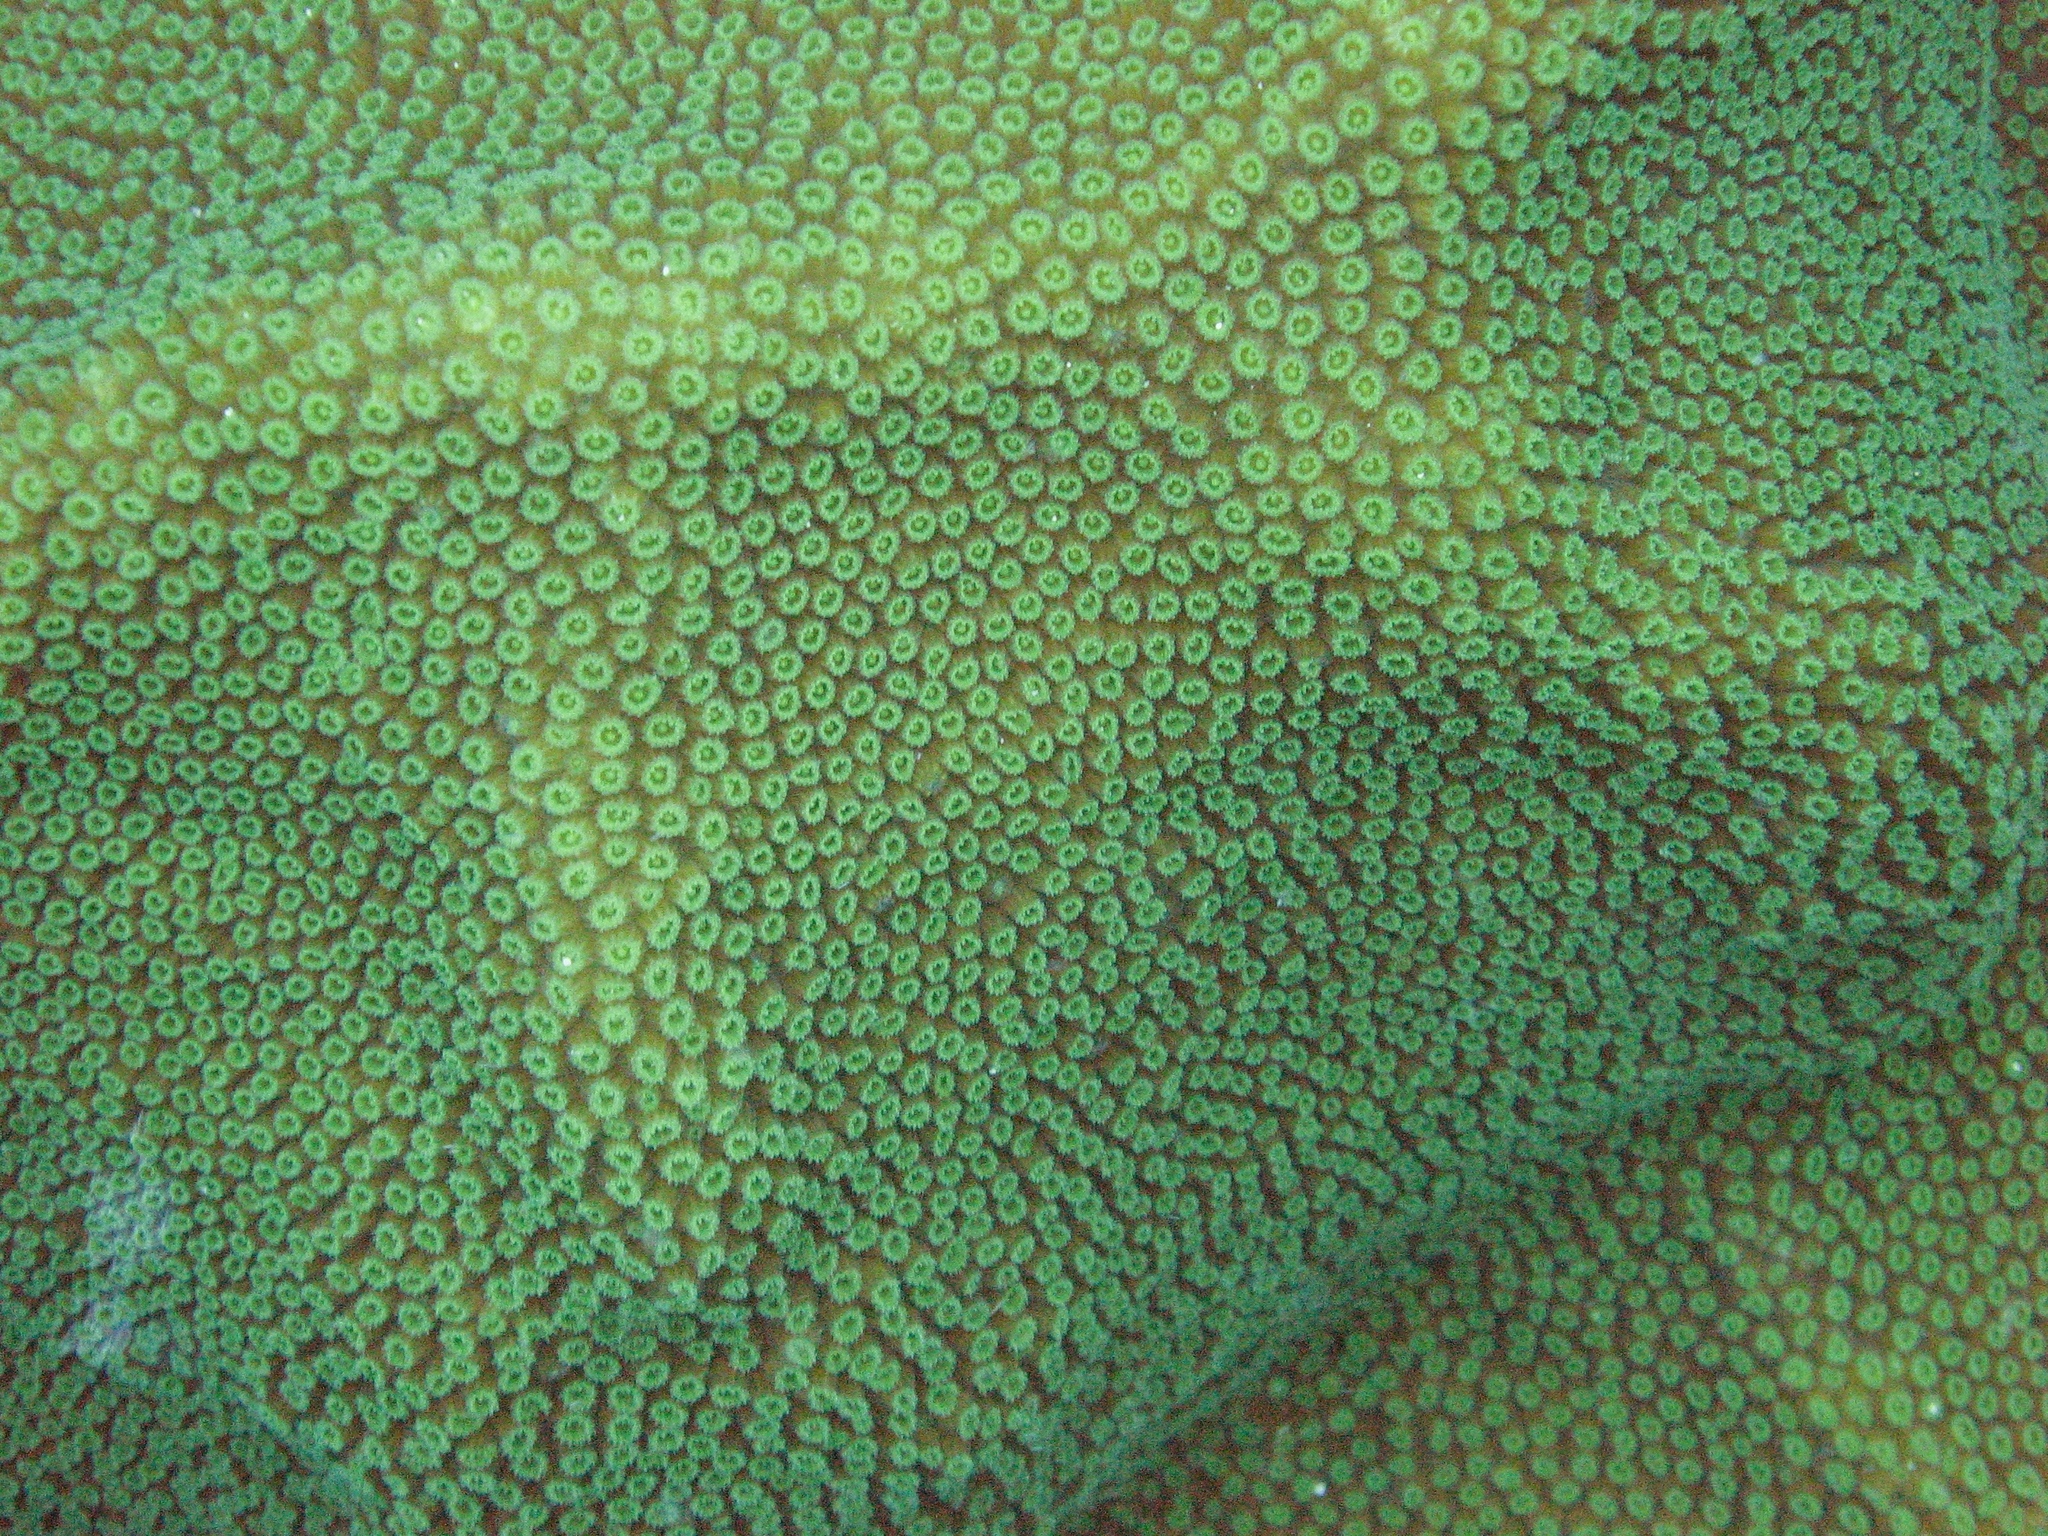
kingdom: Animalia
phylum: Cnidaria
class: Anthozoa
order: Scleractinia
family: Merulinidae
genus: Orbicella
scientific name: Orbicella faveolata
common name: Mountainous star coral
